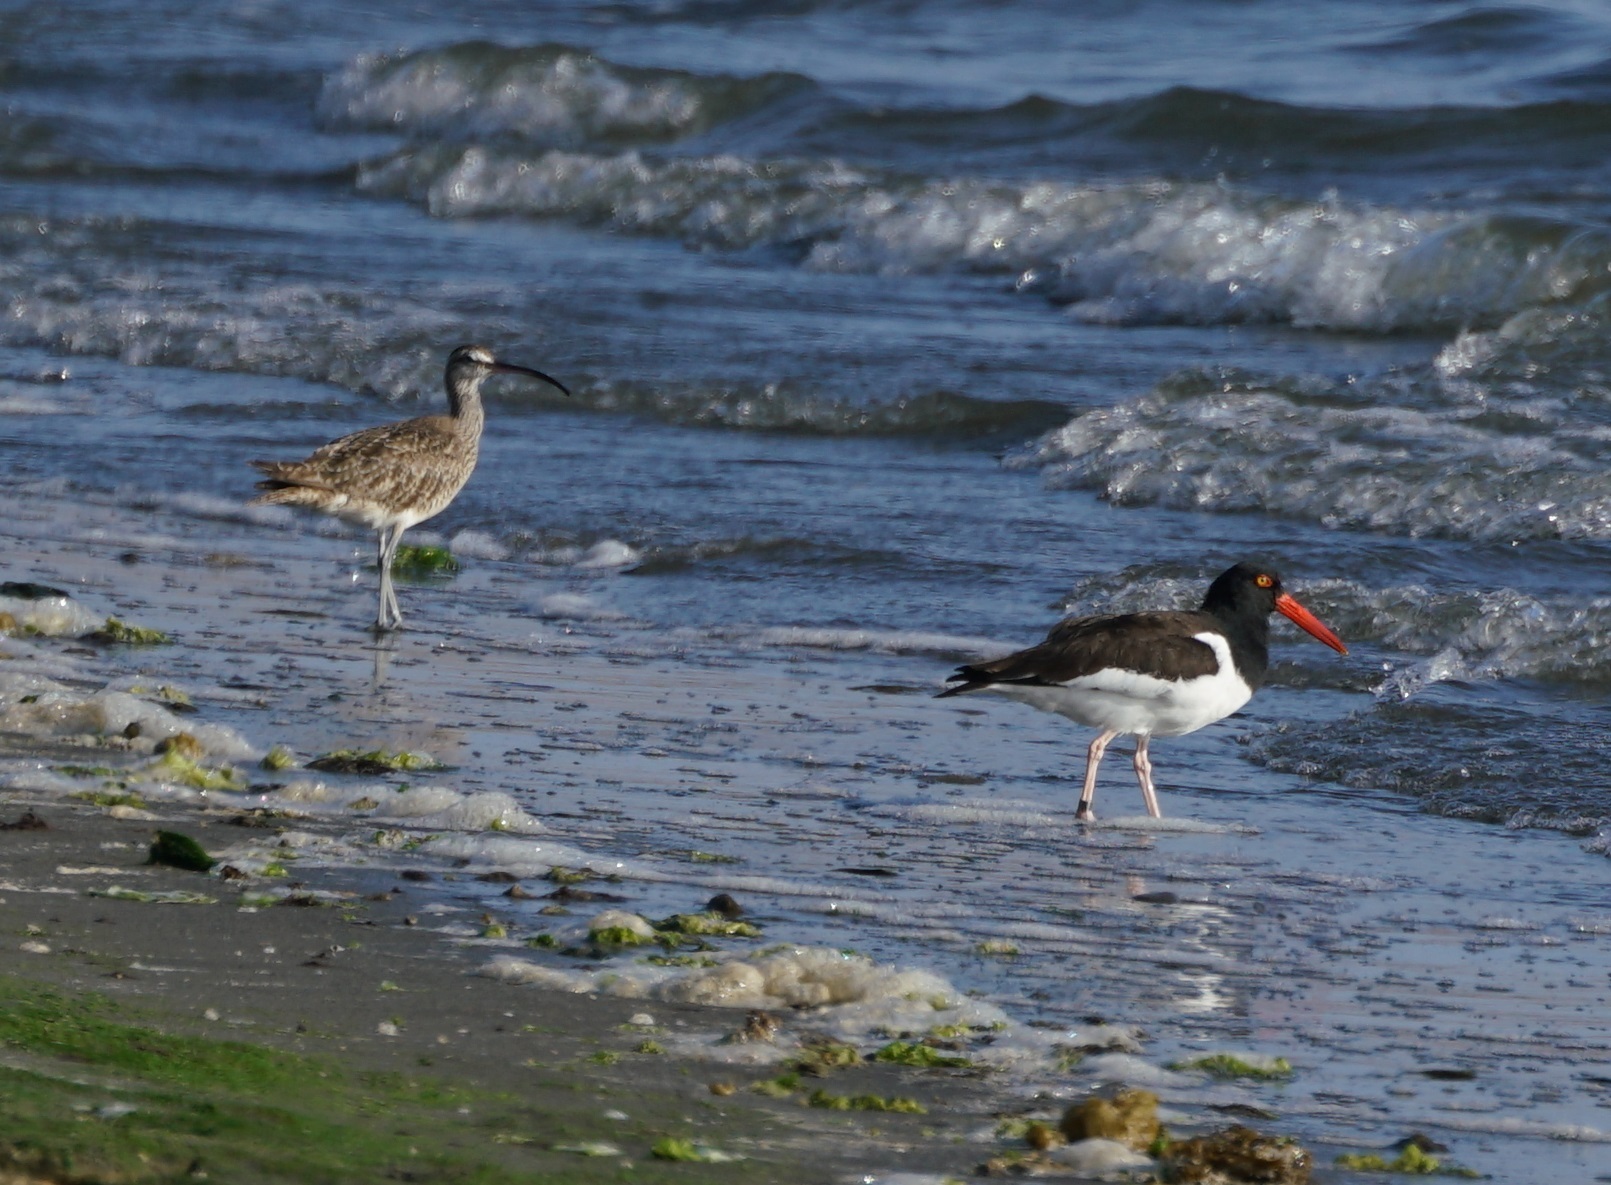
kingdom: Animalia
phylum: Chordata
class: Aves
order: Charadriiformes
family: Haematopodidae
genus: Haematopus
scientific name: Haematopus palliatus
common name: American oystercatcher
